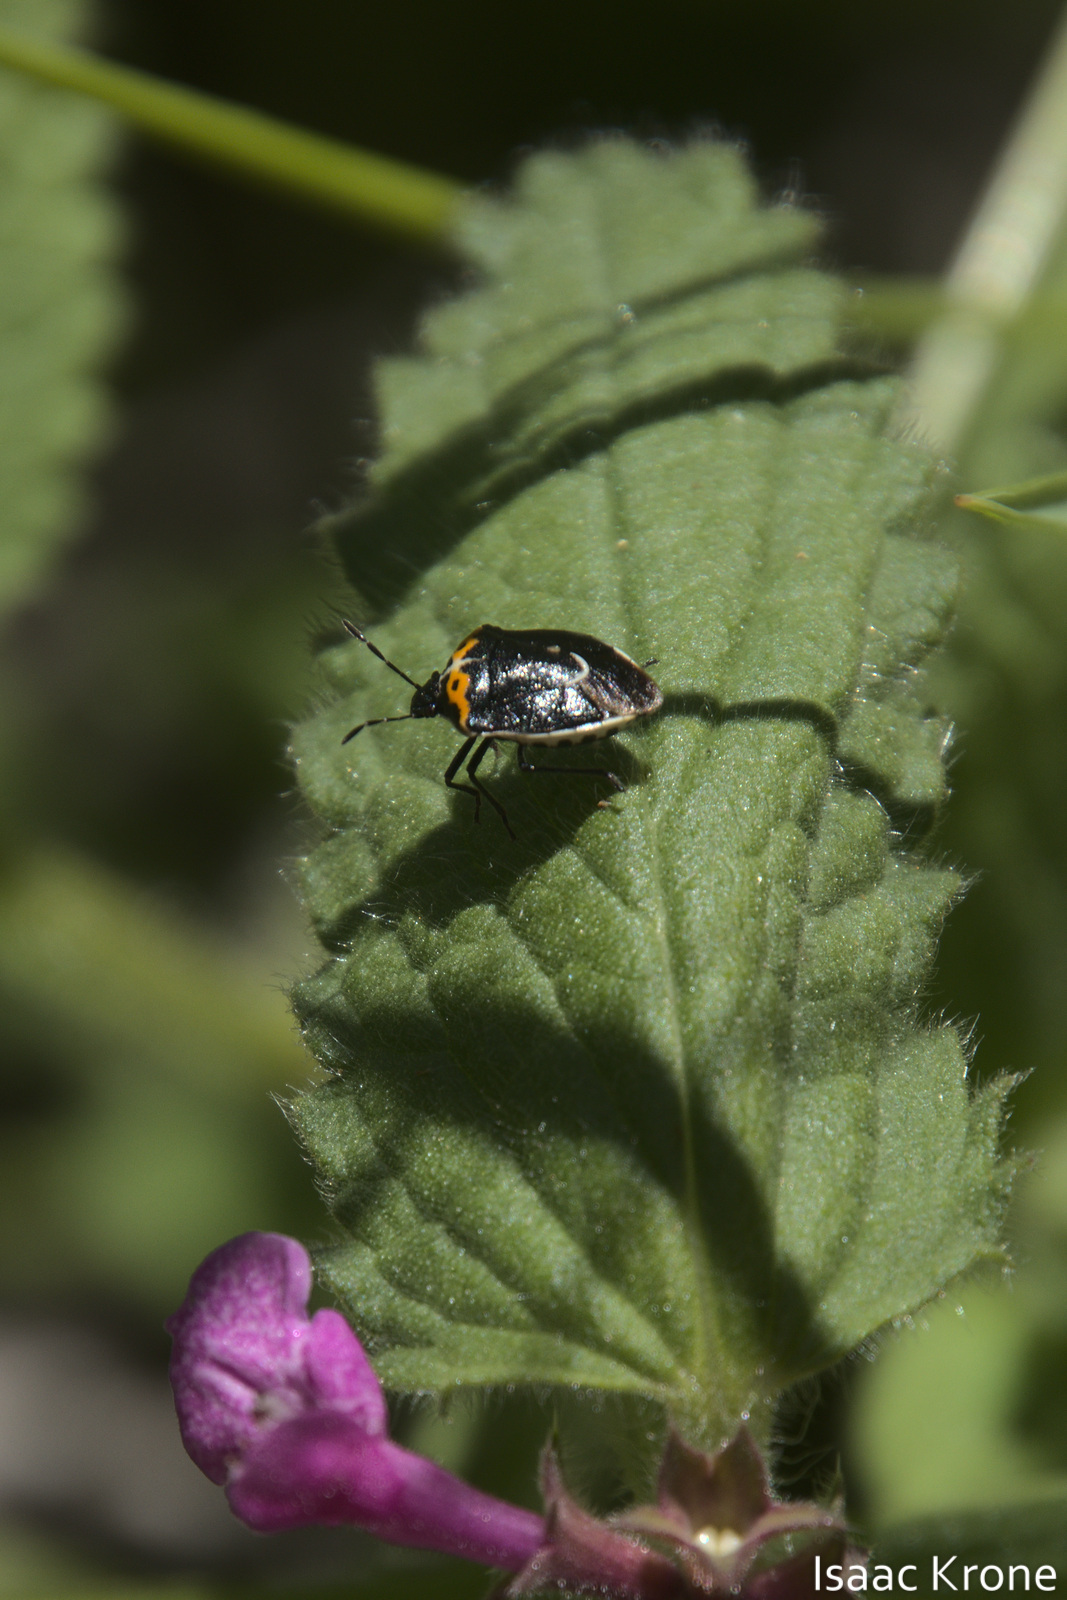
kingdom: Animalia
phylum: Arthropoda
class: Insecta
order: Hemiptera
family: Pentatomidae
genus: Cosmopepla
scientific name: Cosmopepla conspicillaris
